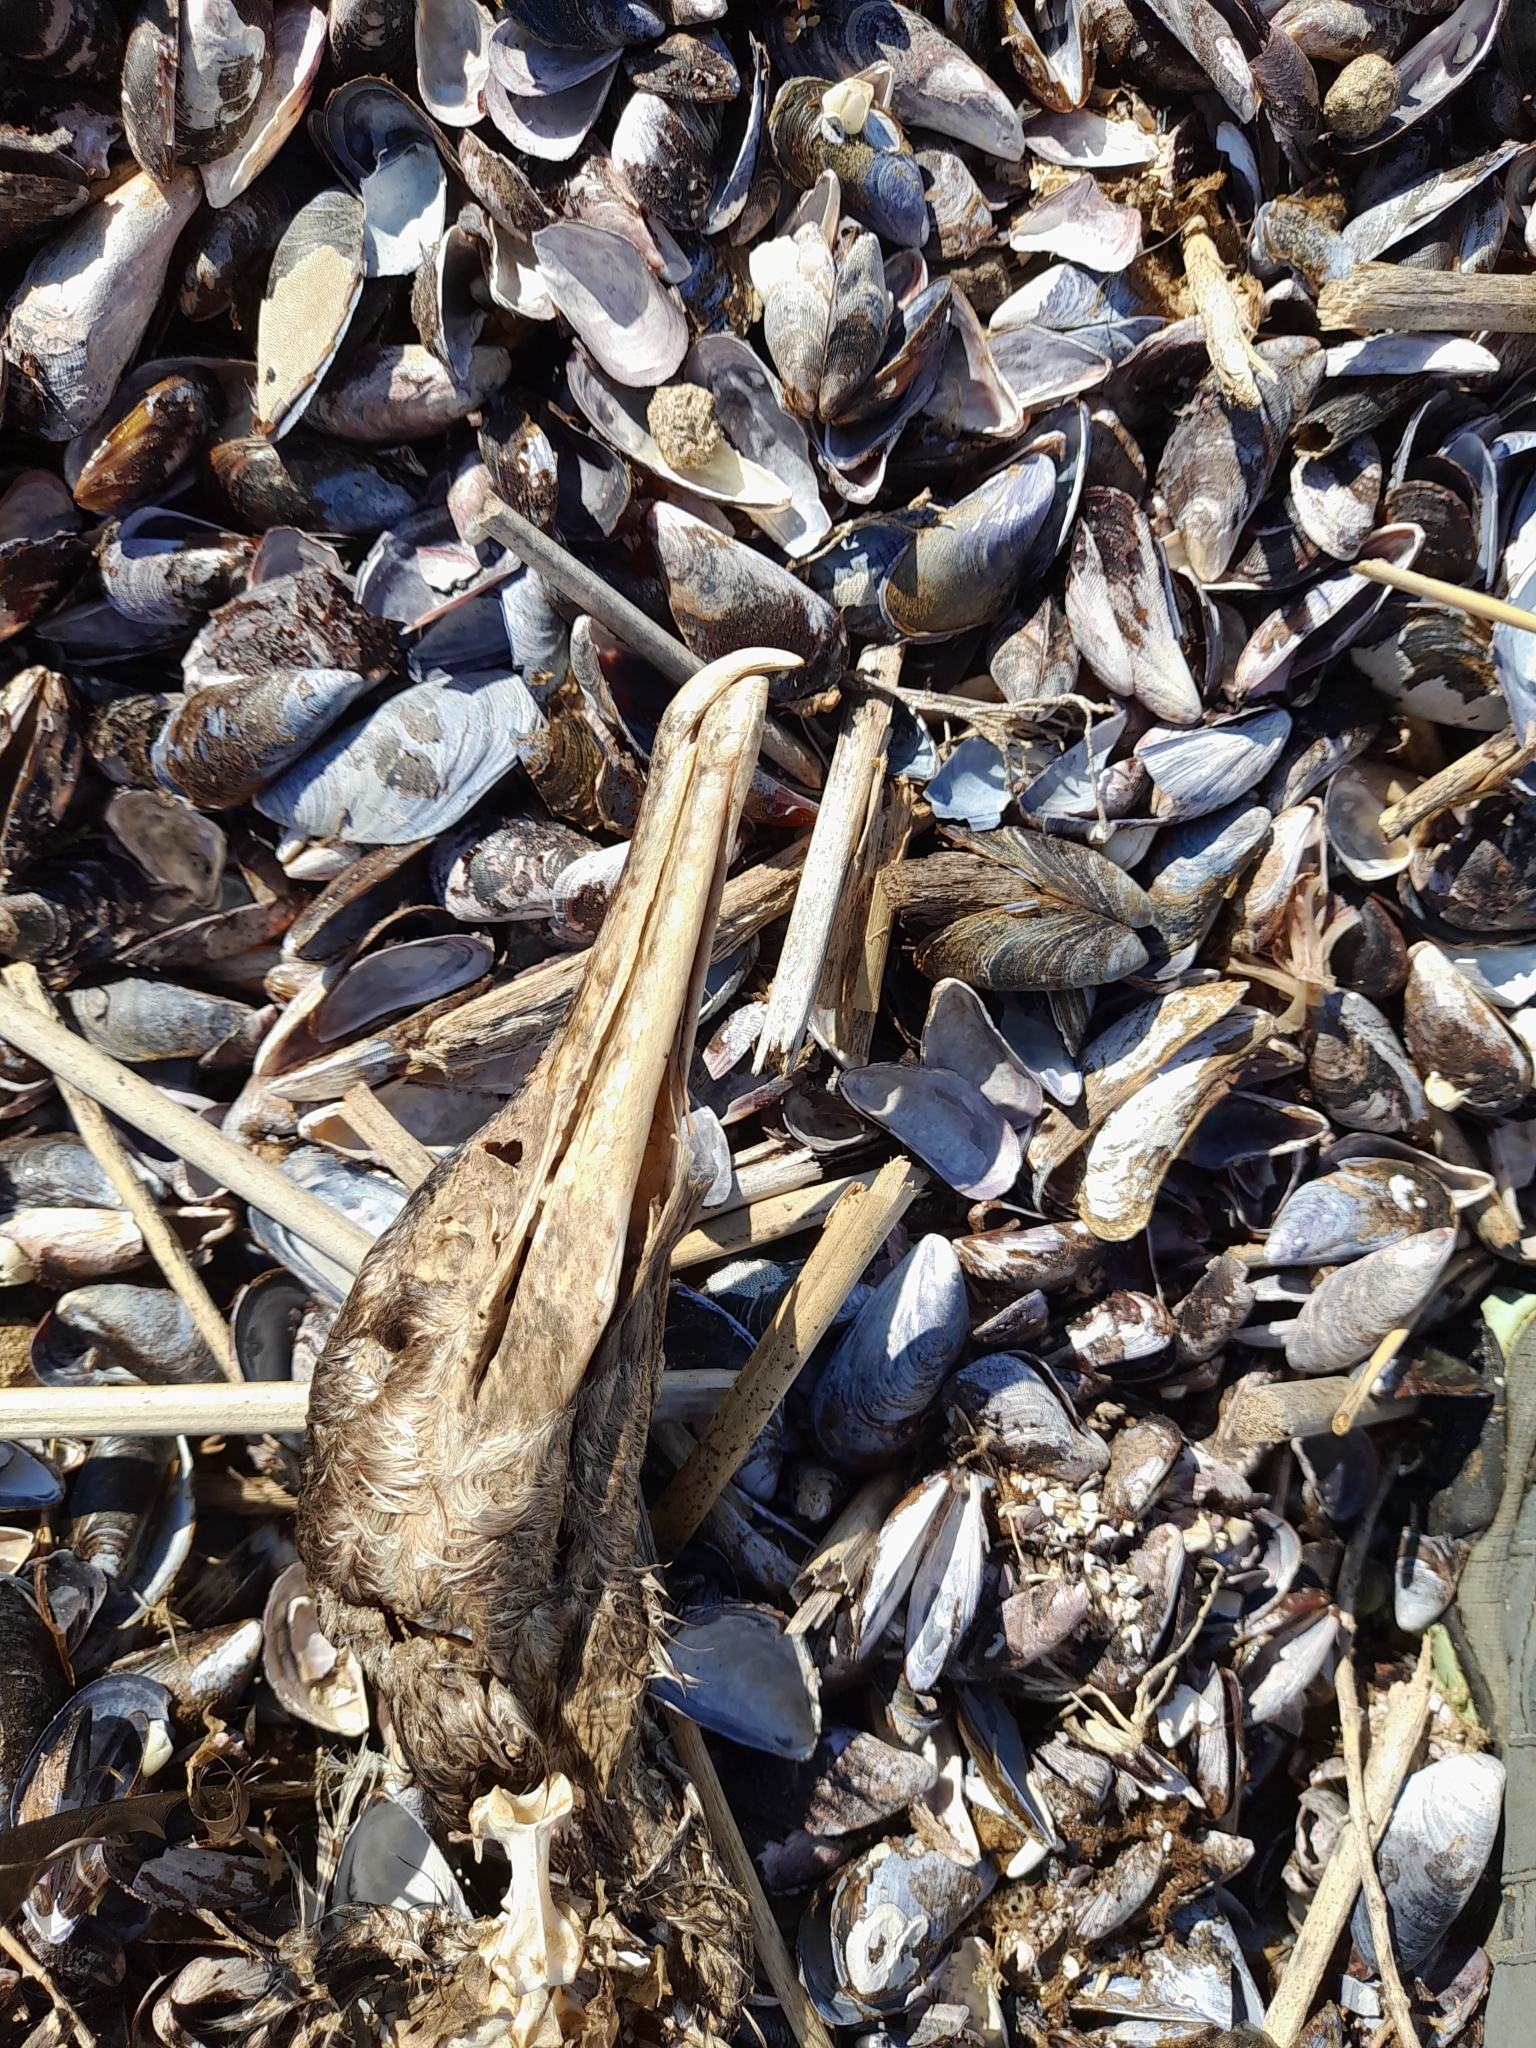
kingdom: Animalia
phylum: Chordata
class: Aves
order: Suliformes
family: Phalacrocoracidae
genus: Phalacrocorax
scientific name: Phalacrocorax brasilianus
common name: Neotropic cormorant
